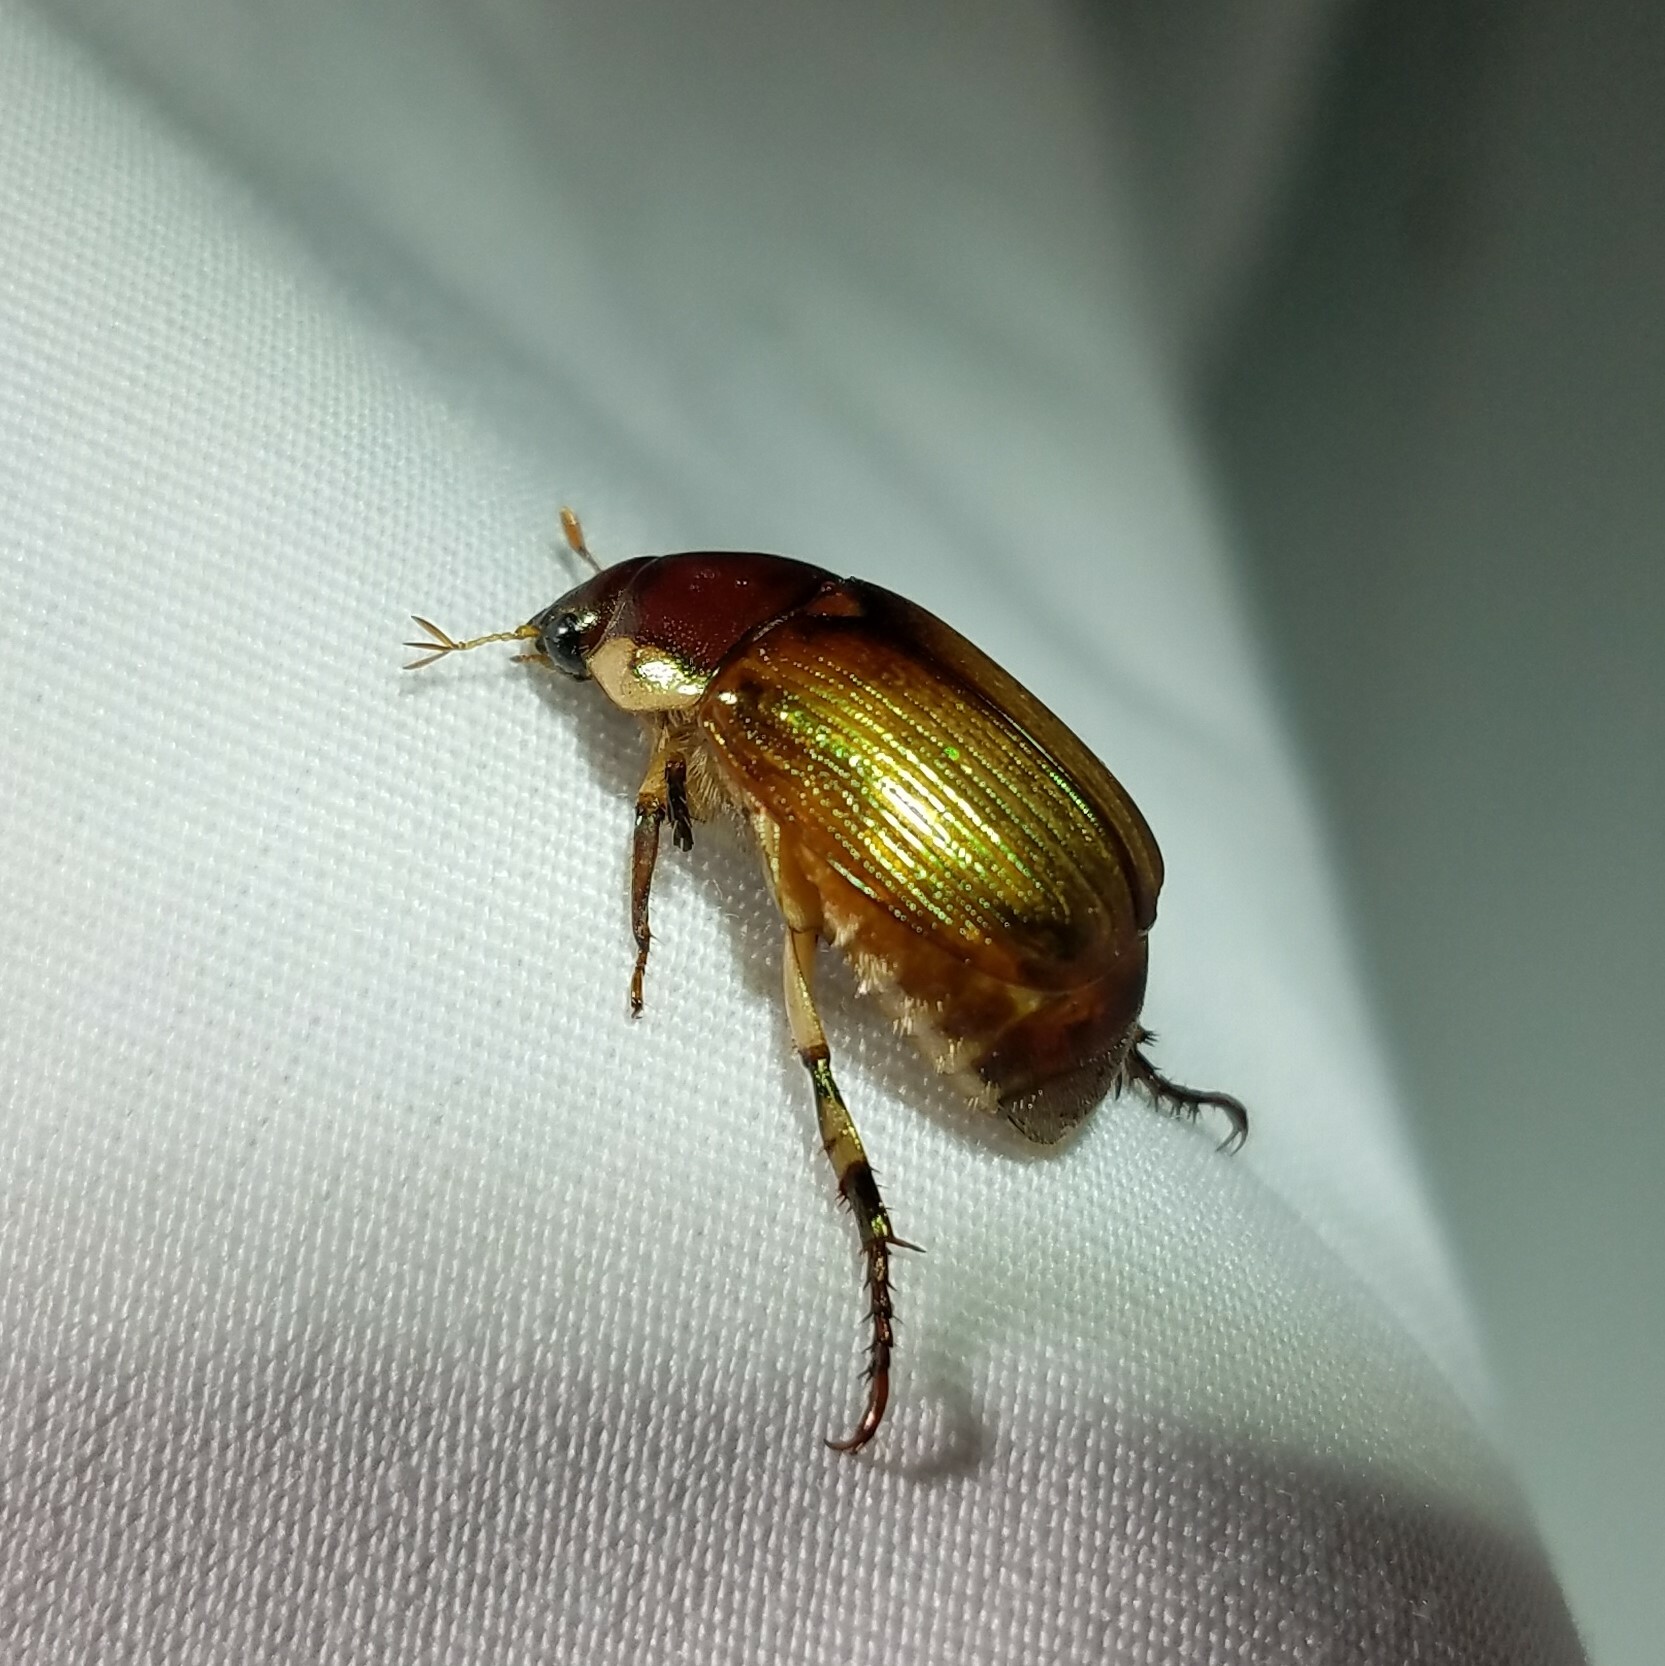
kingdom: Animalia
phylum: Arthropoda
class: Insecta
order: Coleoptera
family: Scarabaeidae
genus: Callistethus
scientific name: Callistethus marginatus
